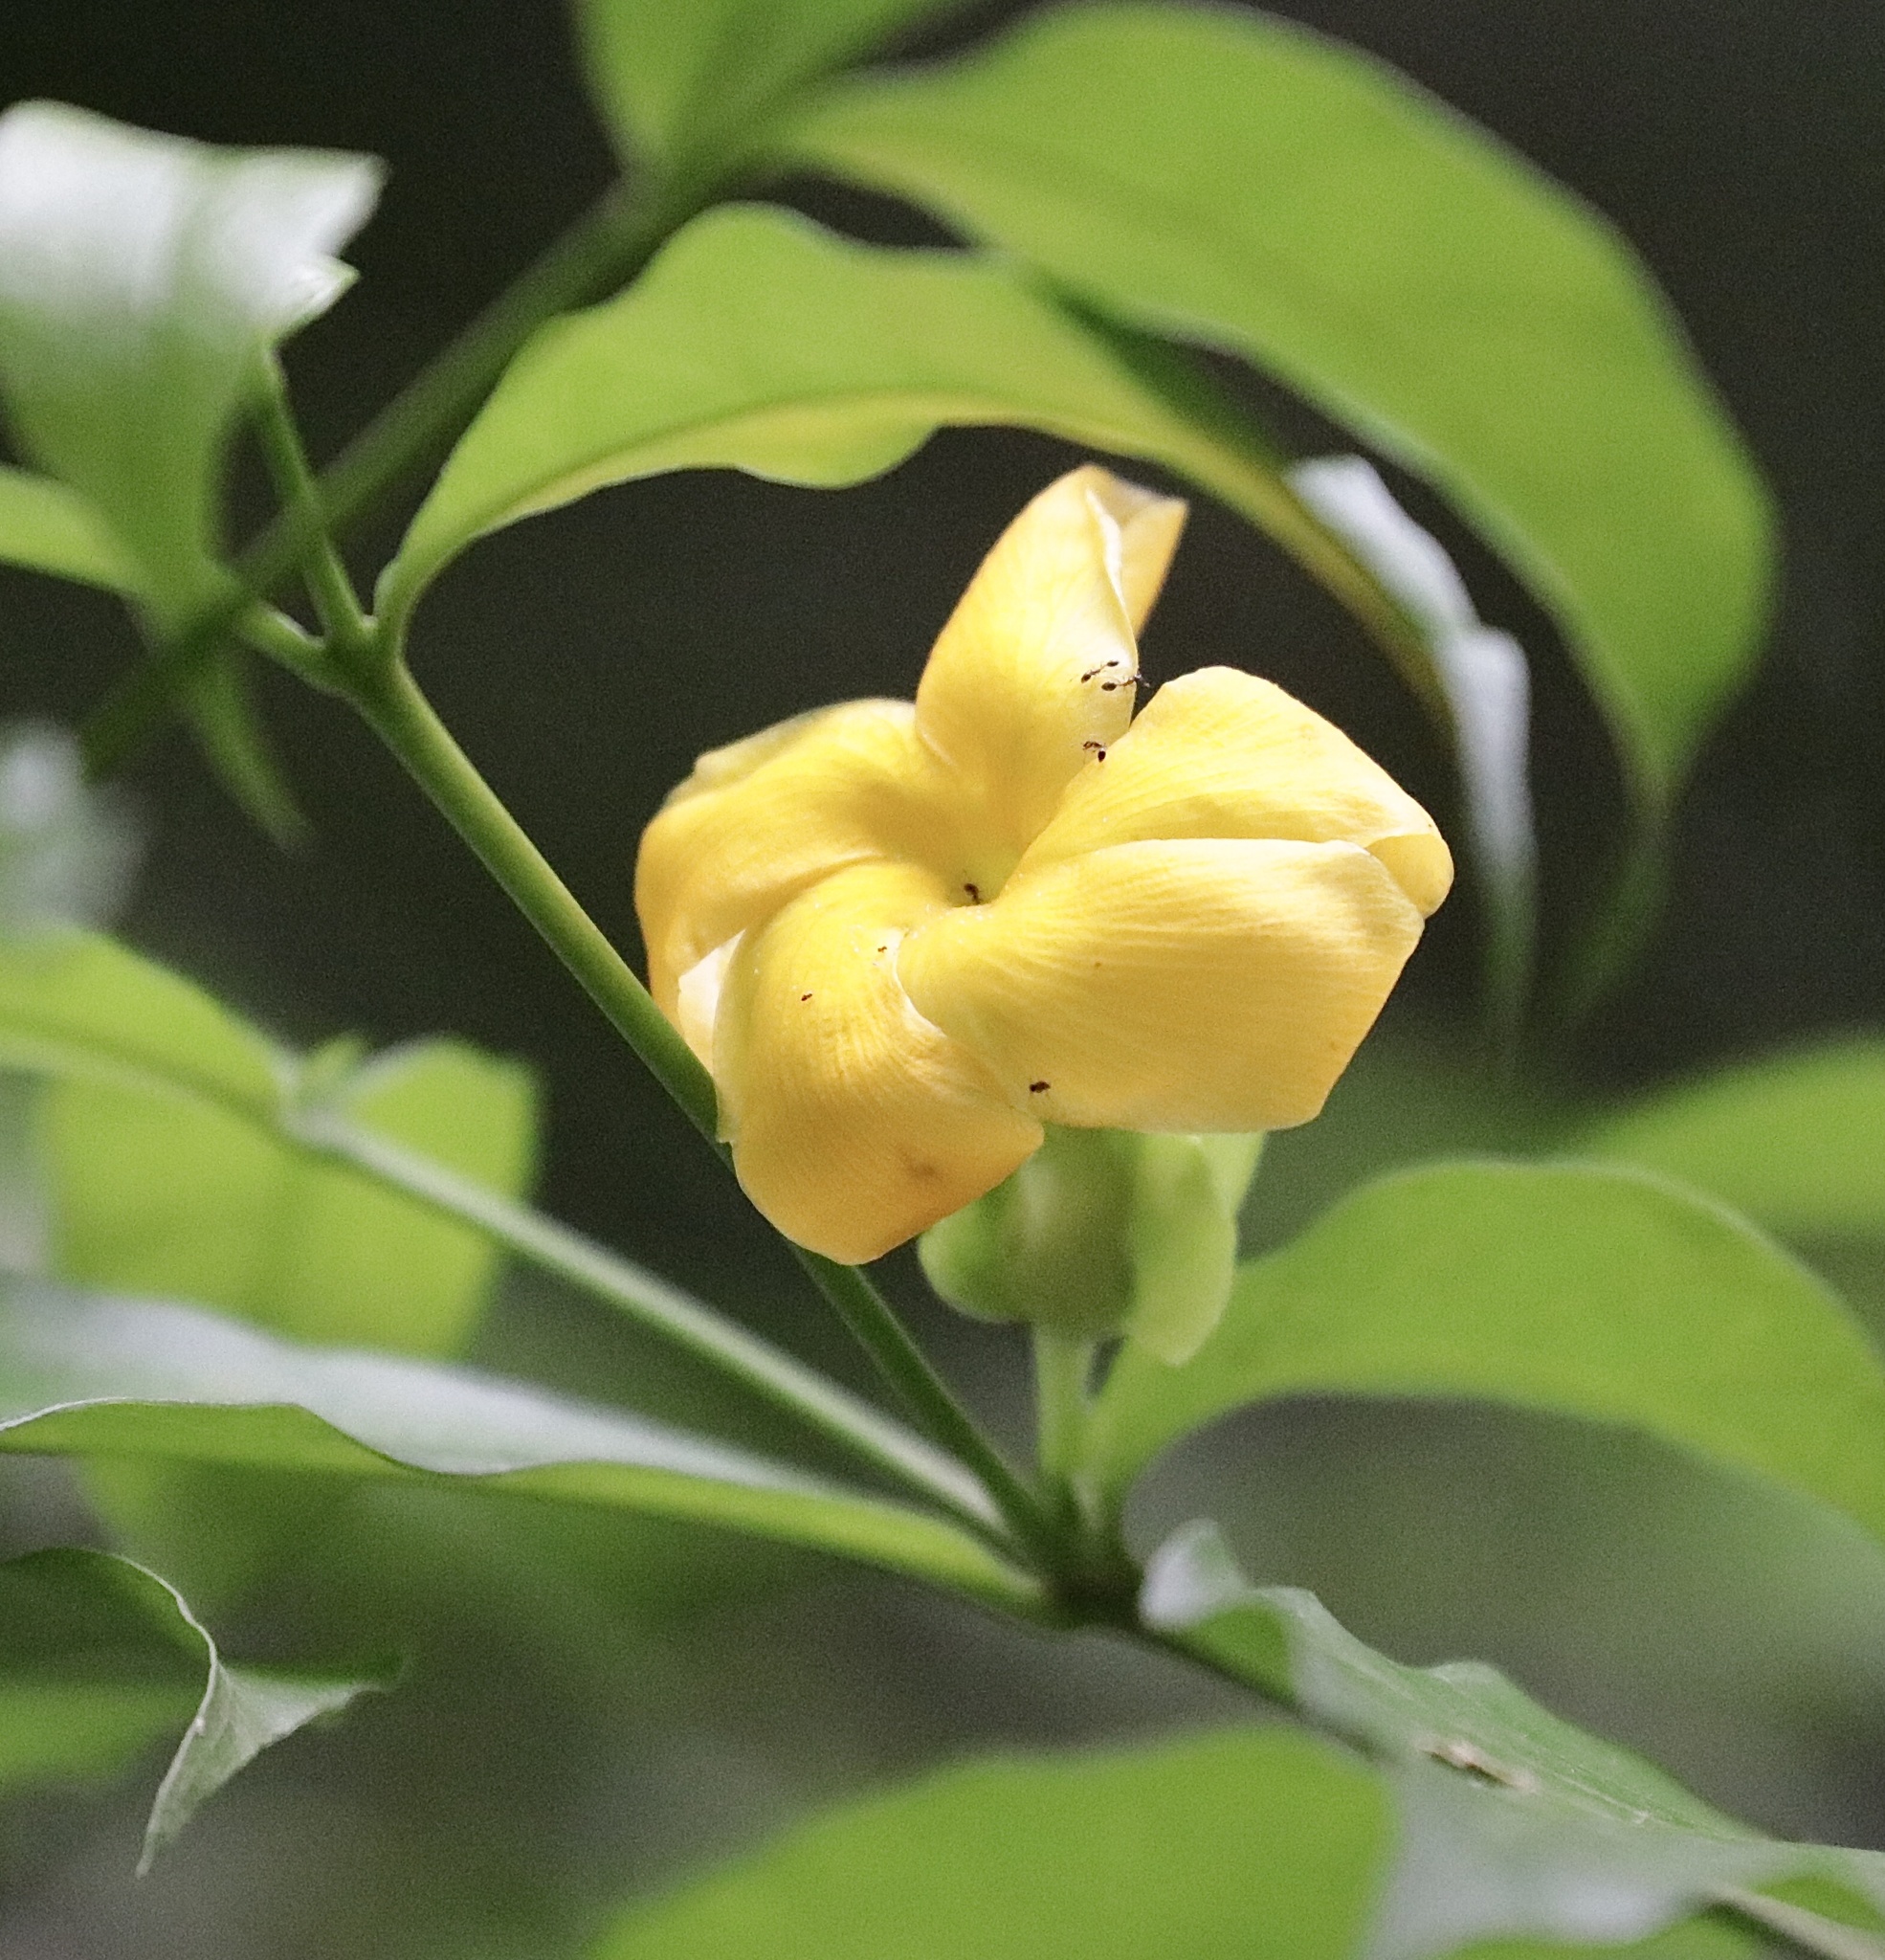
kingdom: Plantae
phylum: Tracheophyta
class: Magnoliopsida
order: Gentianales
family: Apocynaceae
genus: Tabernaemontana
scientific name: Tabernaemontana grandiflora
